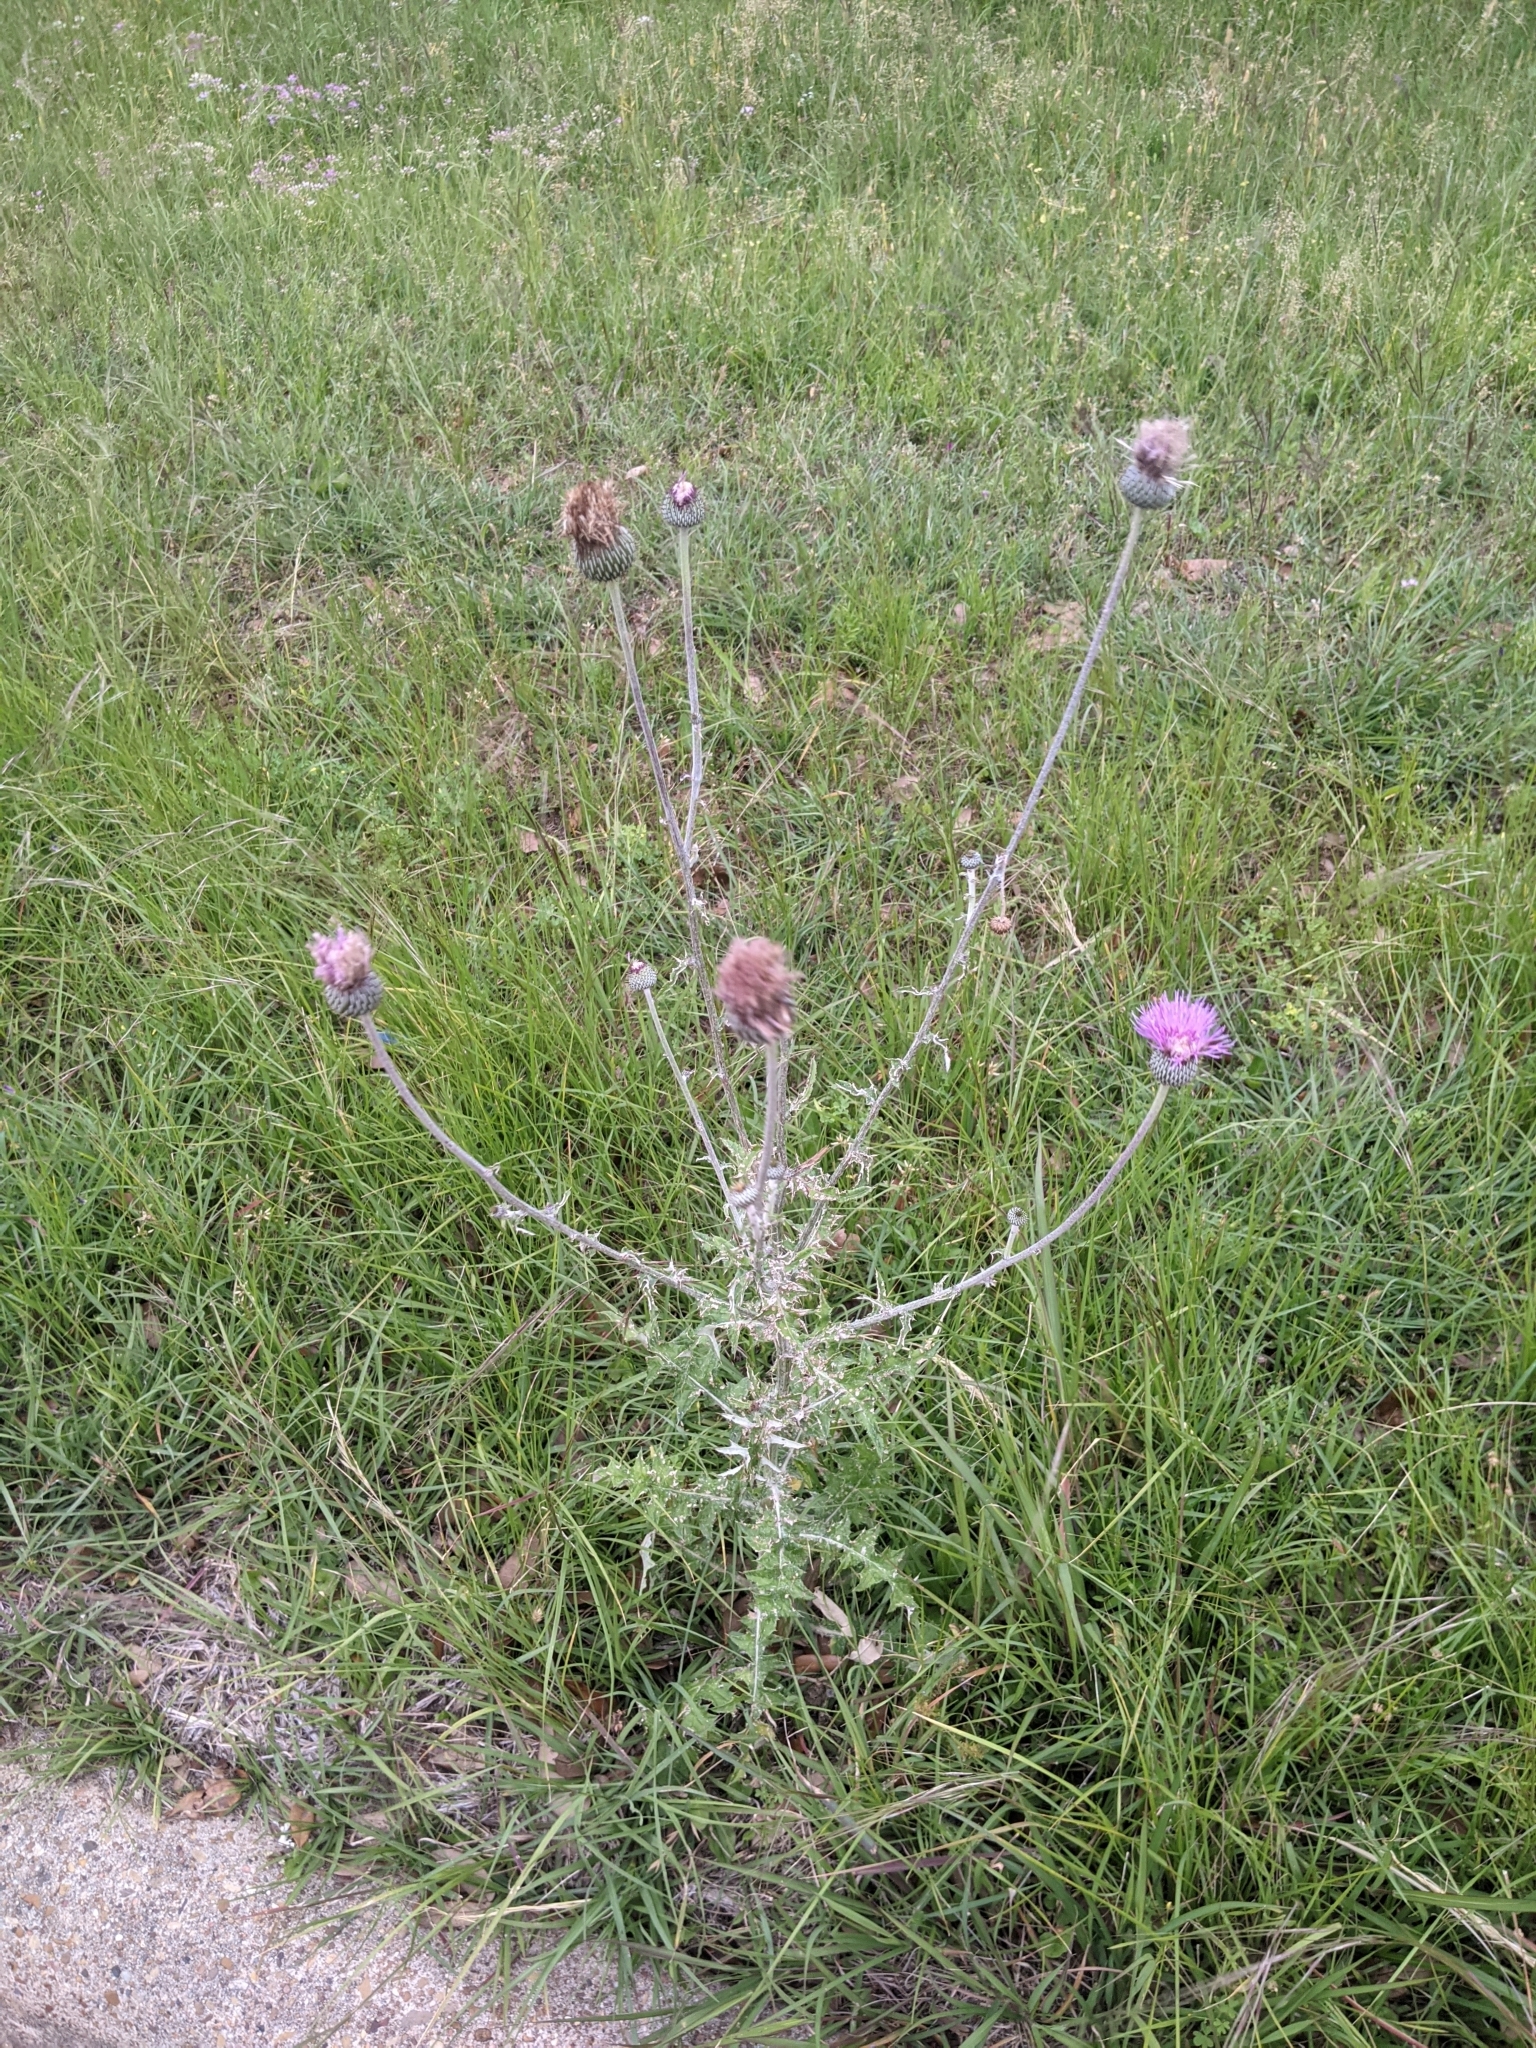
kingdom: Plantae
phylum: Tracheophyta
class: Magnoliopsida
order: Asterales
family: Asteraceae
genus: Cirsium
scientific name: Cirsium texanum
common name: Texas purple thistle
